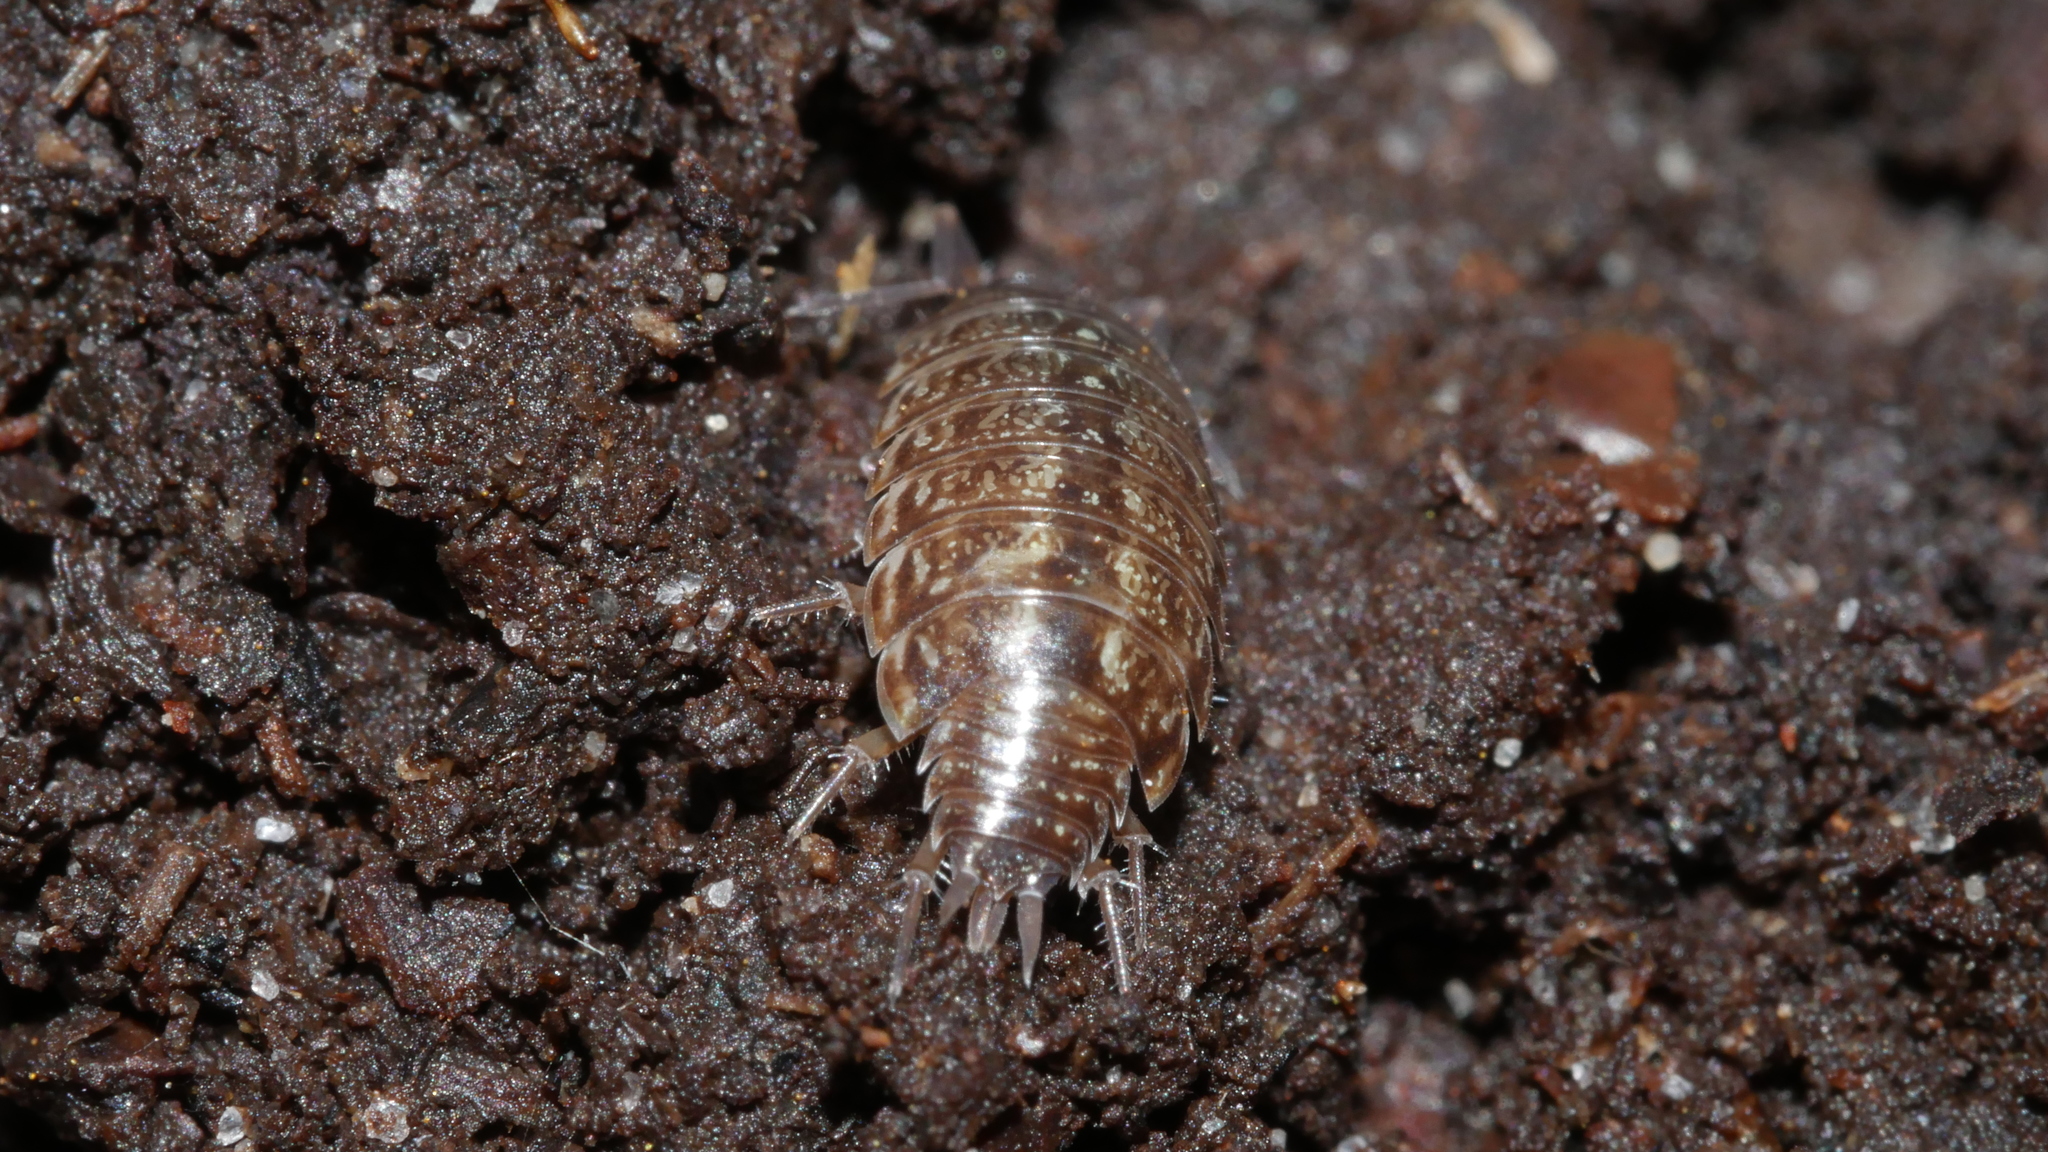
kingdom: Animalia
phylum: Arthropoda
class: Malacostraca
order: Isopoda
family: Philosciidae
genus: Philoscia
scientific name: Philoscia muscorum
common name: Common striped woodlouse
